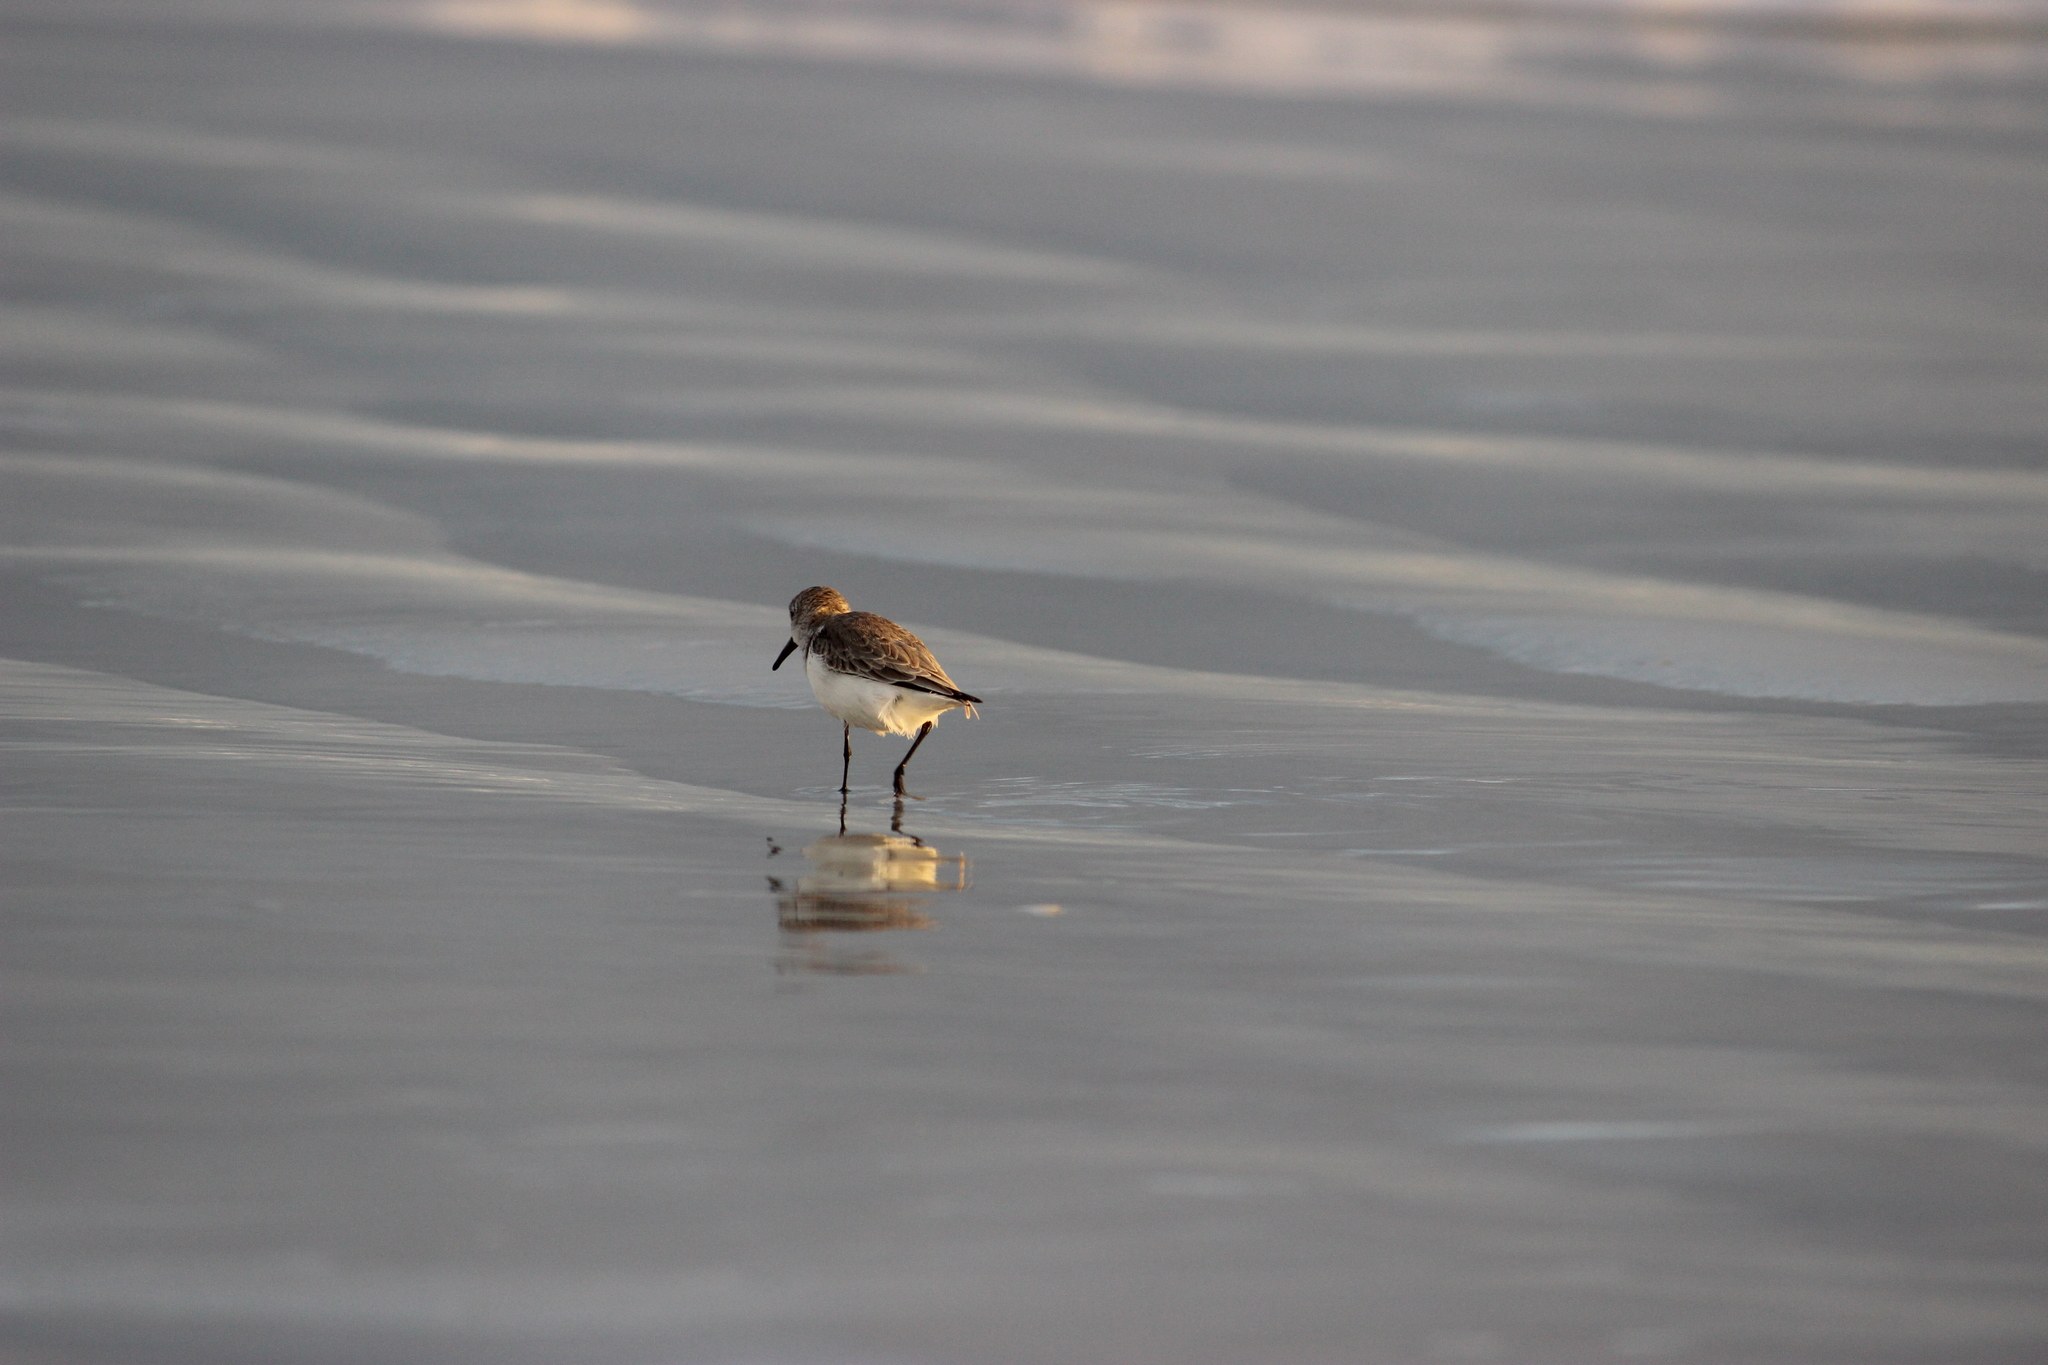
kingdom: Animalia
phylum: Chordata
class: Aves
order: Charadriiformes
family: Scolopacidae
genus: Calidris
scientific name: Calidris alba
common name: Sanderling
